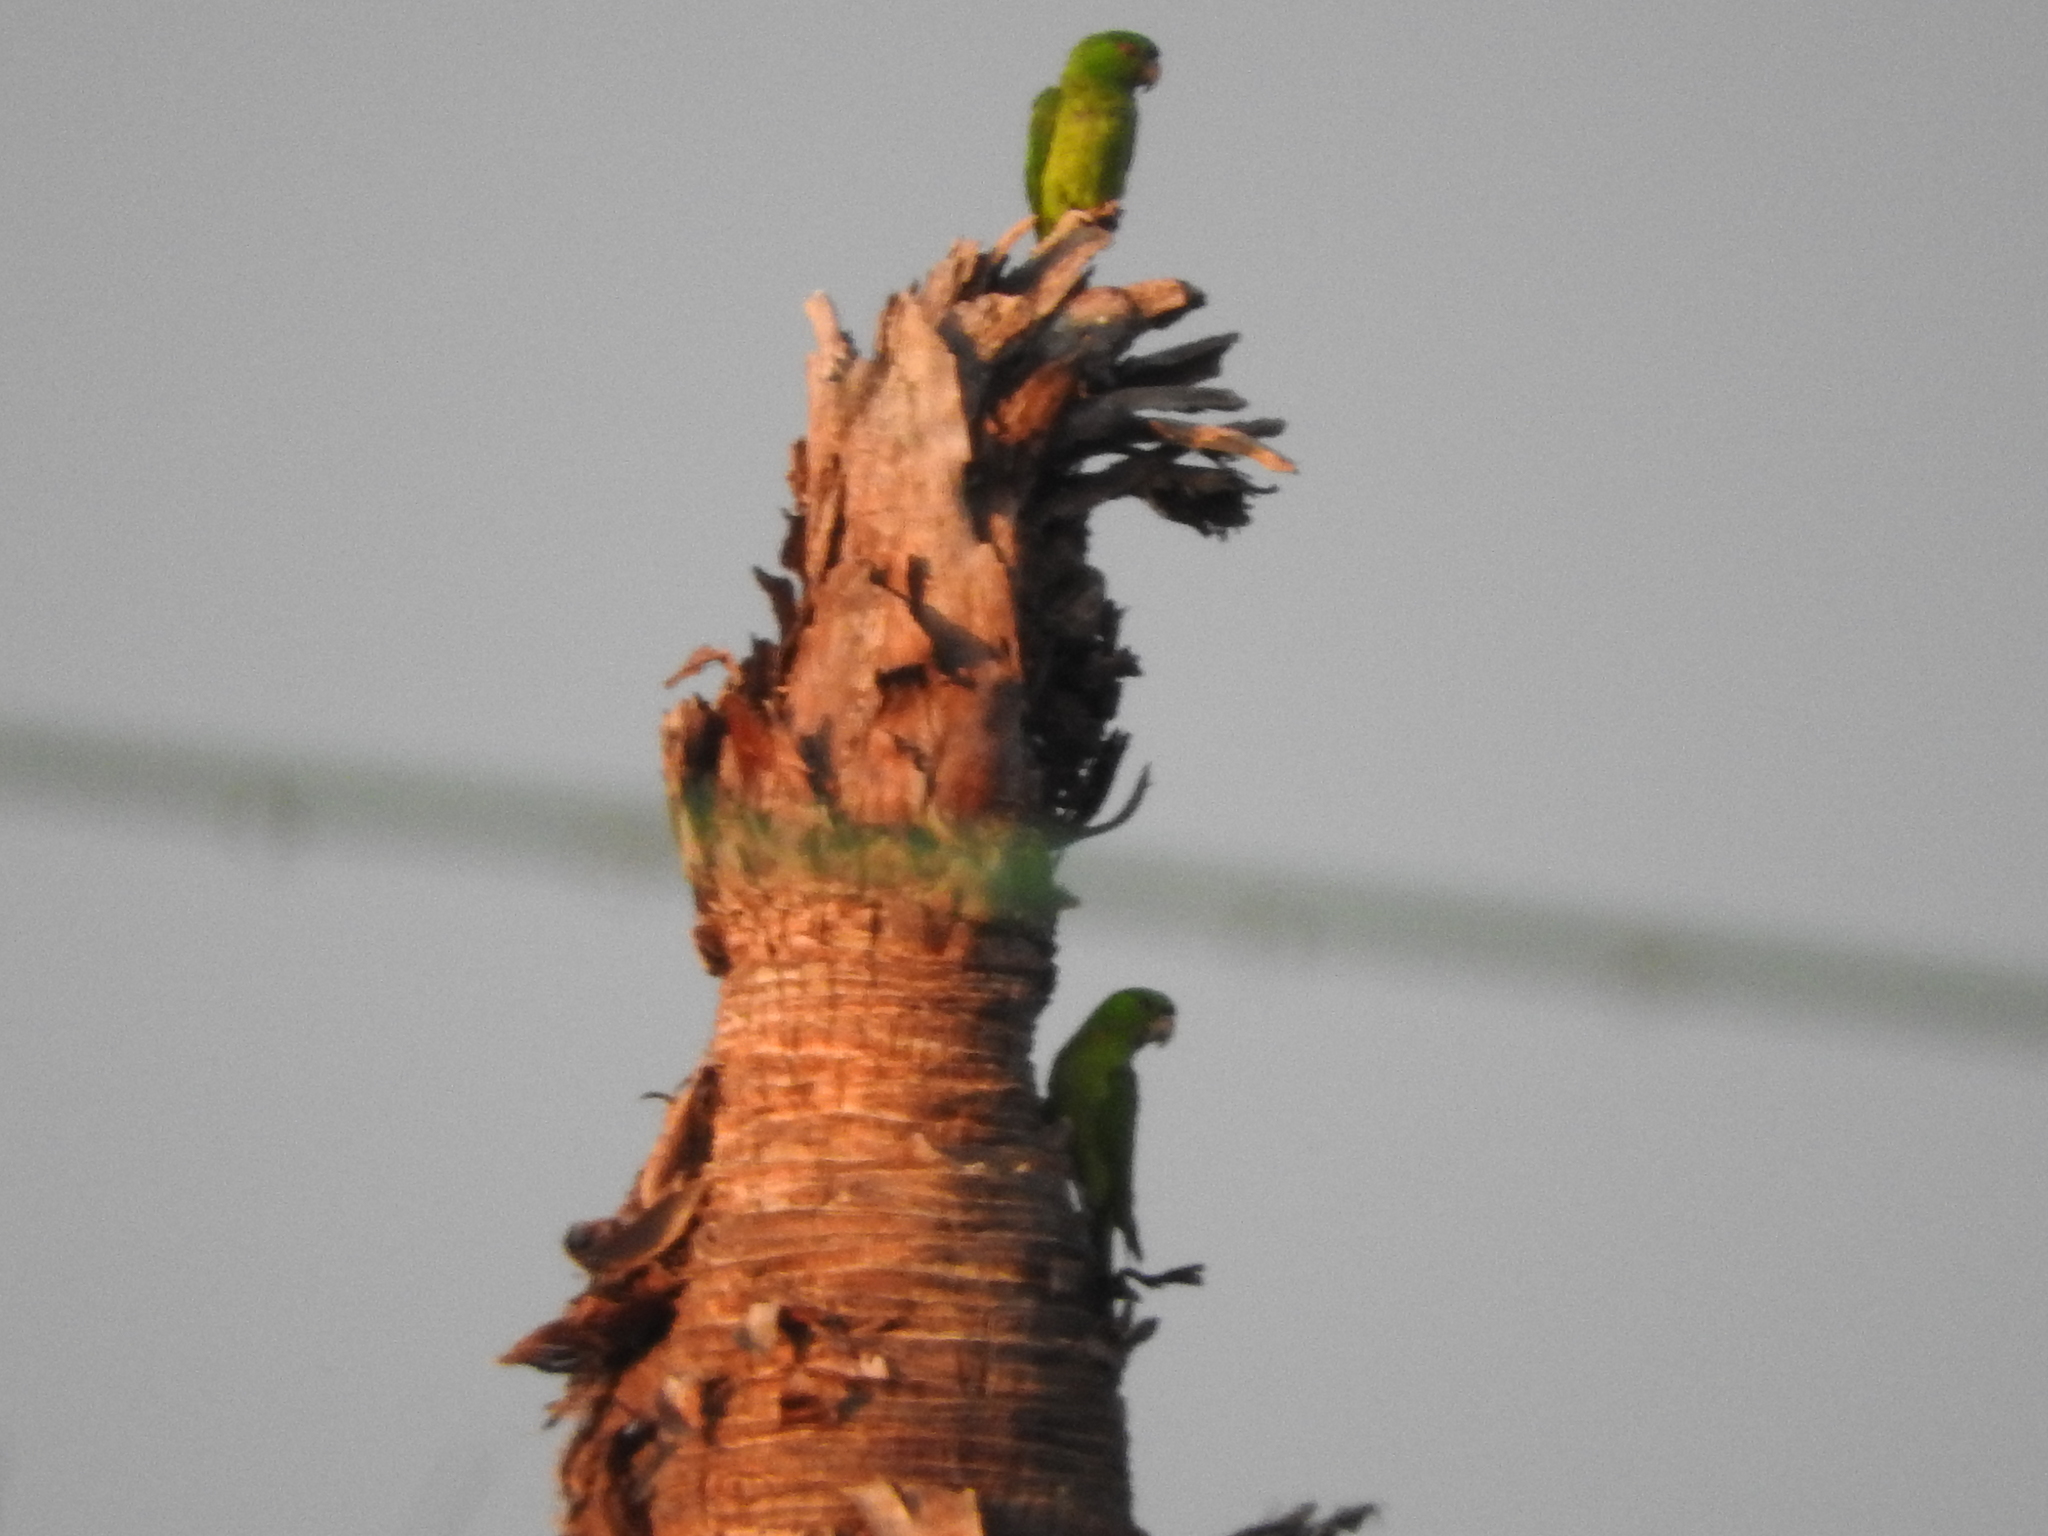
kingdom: Animalia
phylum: Chordata
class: Aves
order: Psittaciformes
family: Psittacidae
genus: Aratinga
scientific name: Aratinga holochlora
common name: Green parakeet
